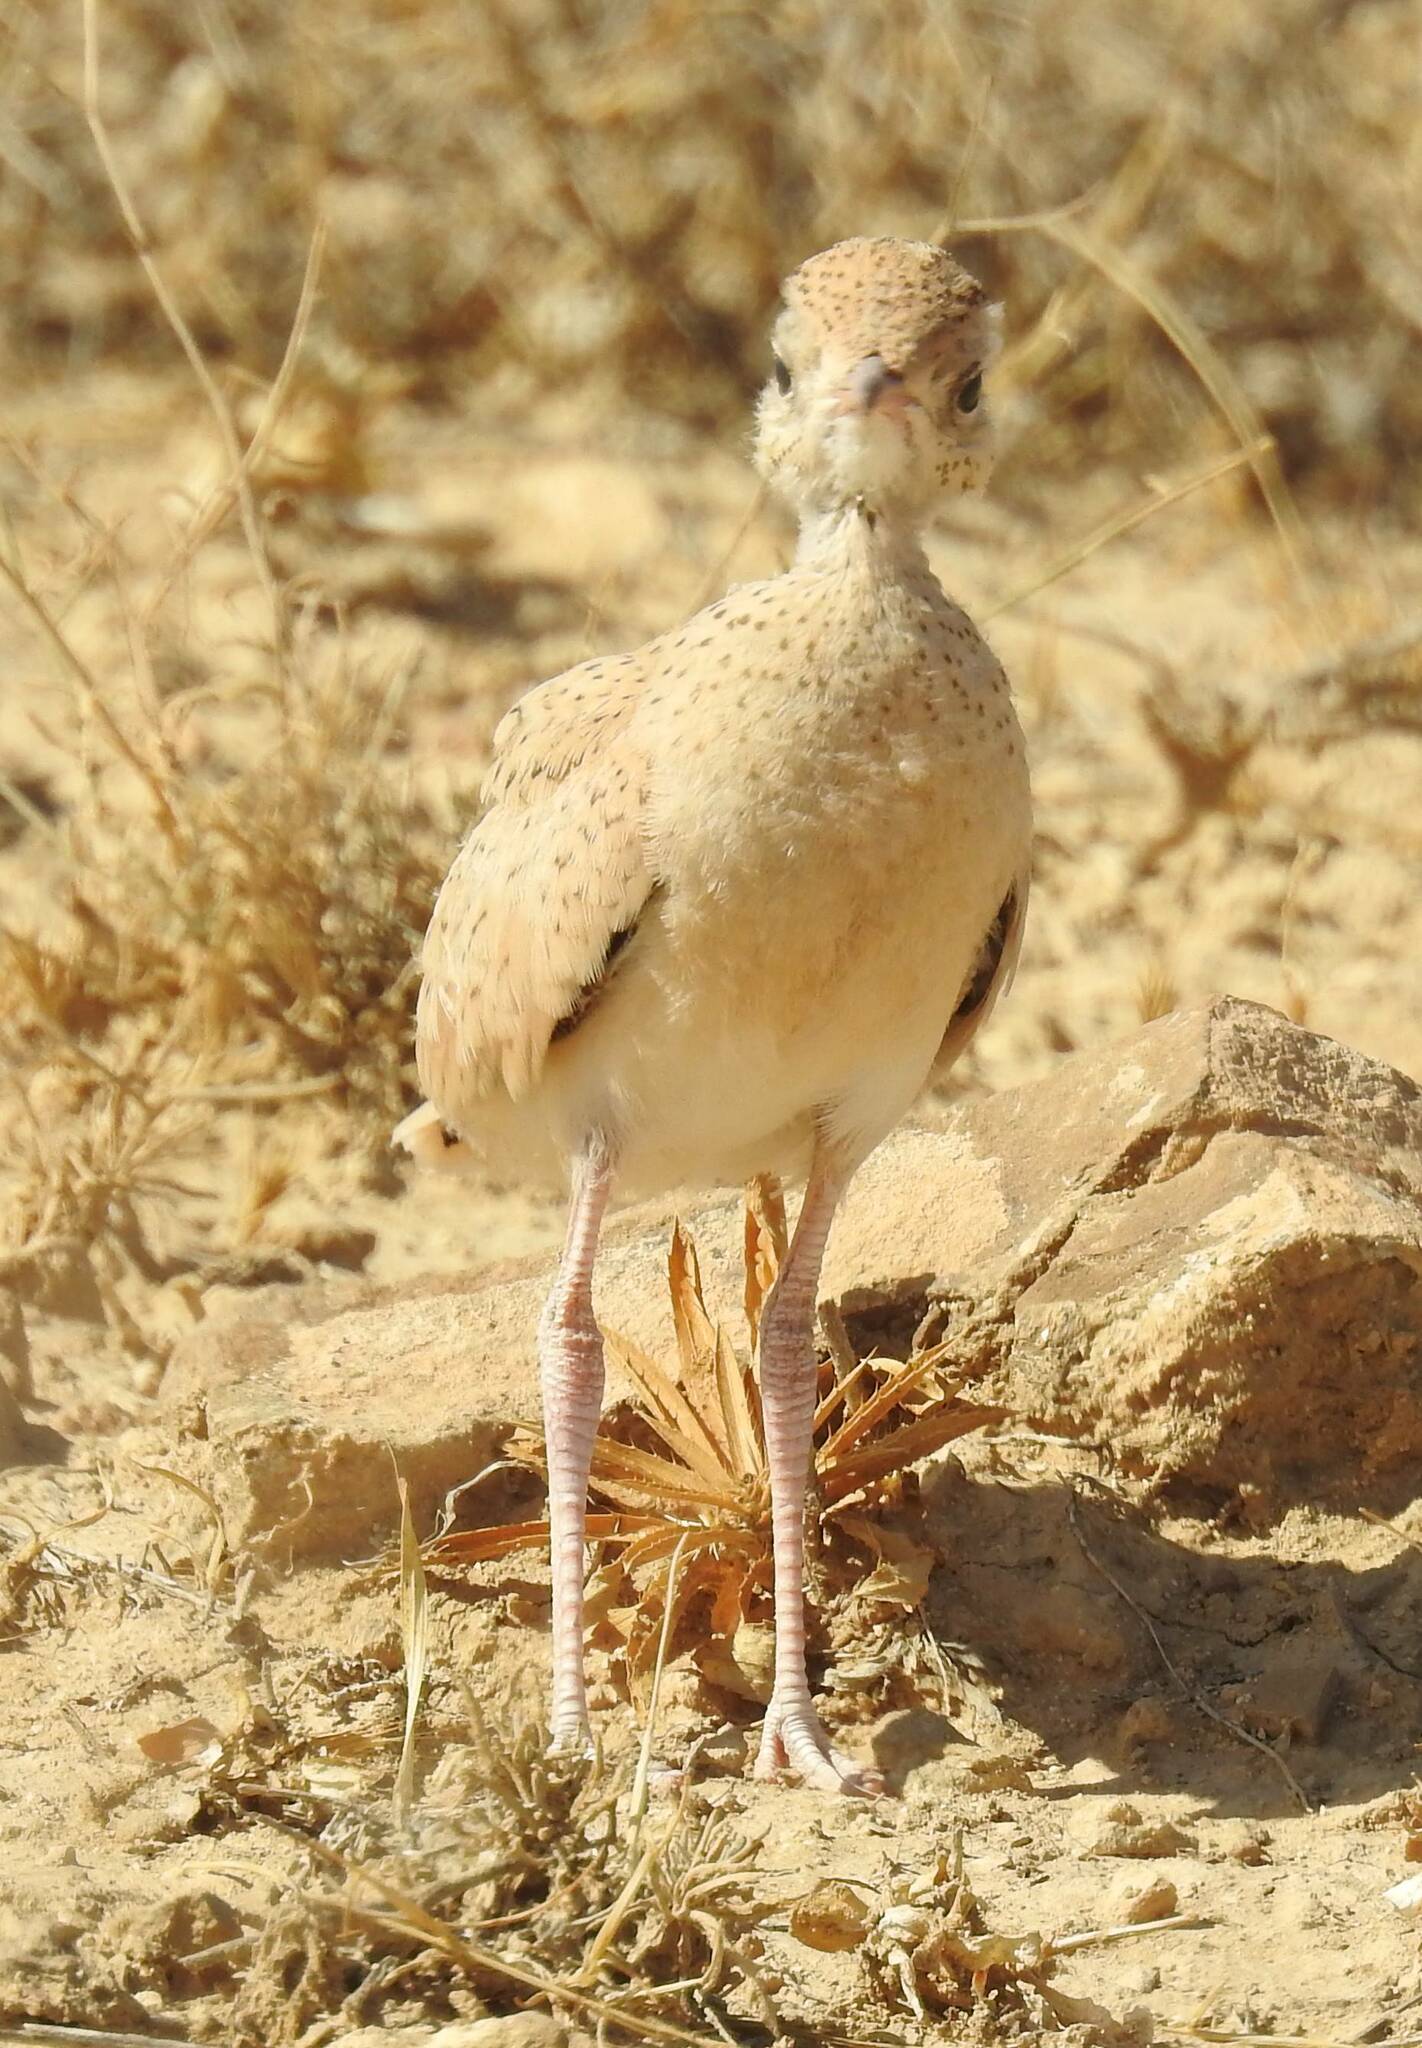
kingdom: Animalia
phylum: Chordata
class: Aves
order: Charadriiformes
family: Glareolidae
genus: Cursorius
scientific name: Cursorius cursor
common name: Cream-colored courser
